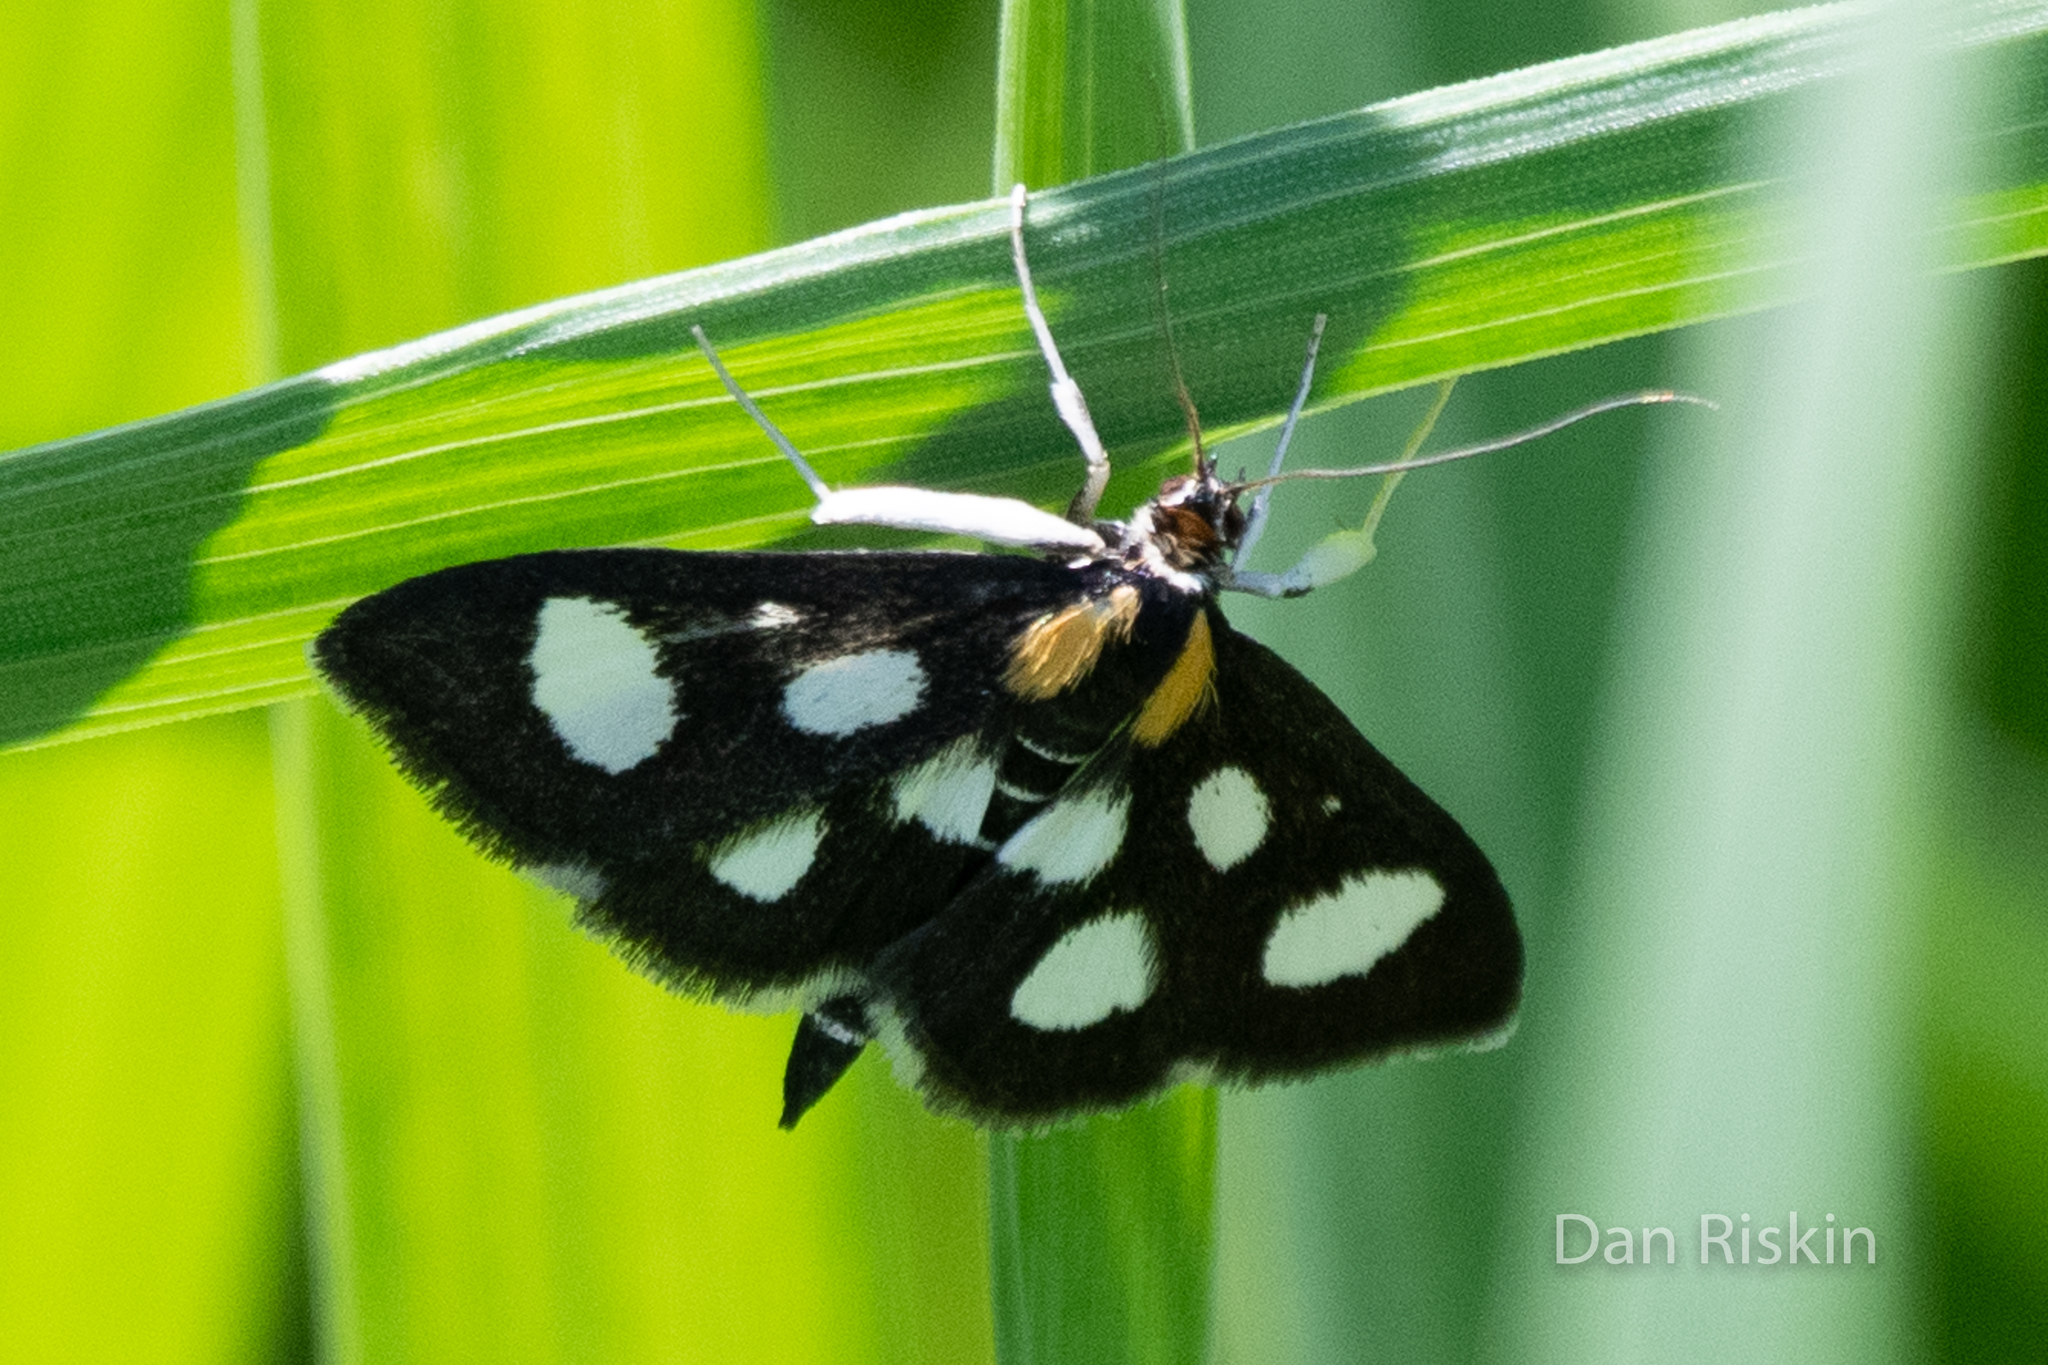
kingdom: Animalia
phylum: Arthropoda
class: Insecta
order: Lepidoptera
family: Crambidae
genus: Anania
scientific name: Anania funebris
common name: White-spotted sable moth
